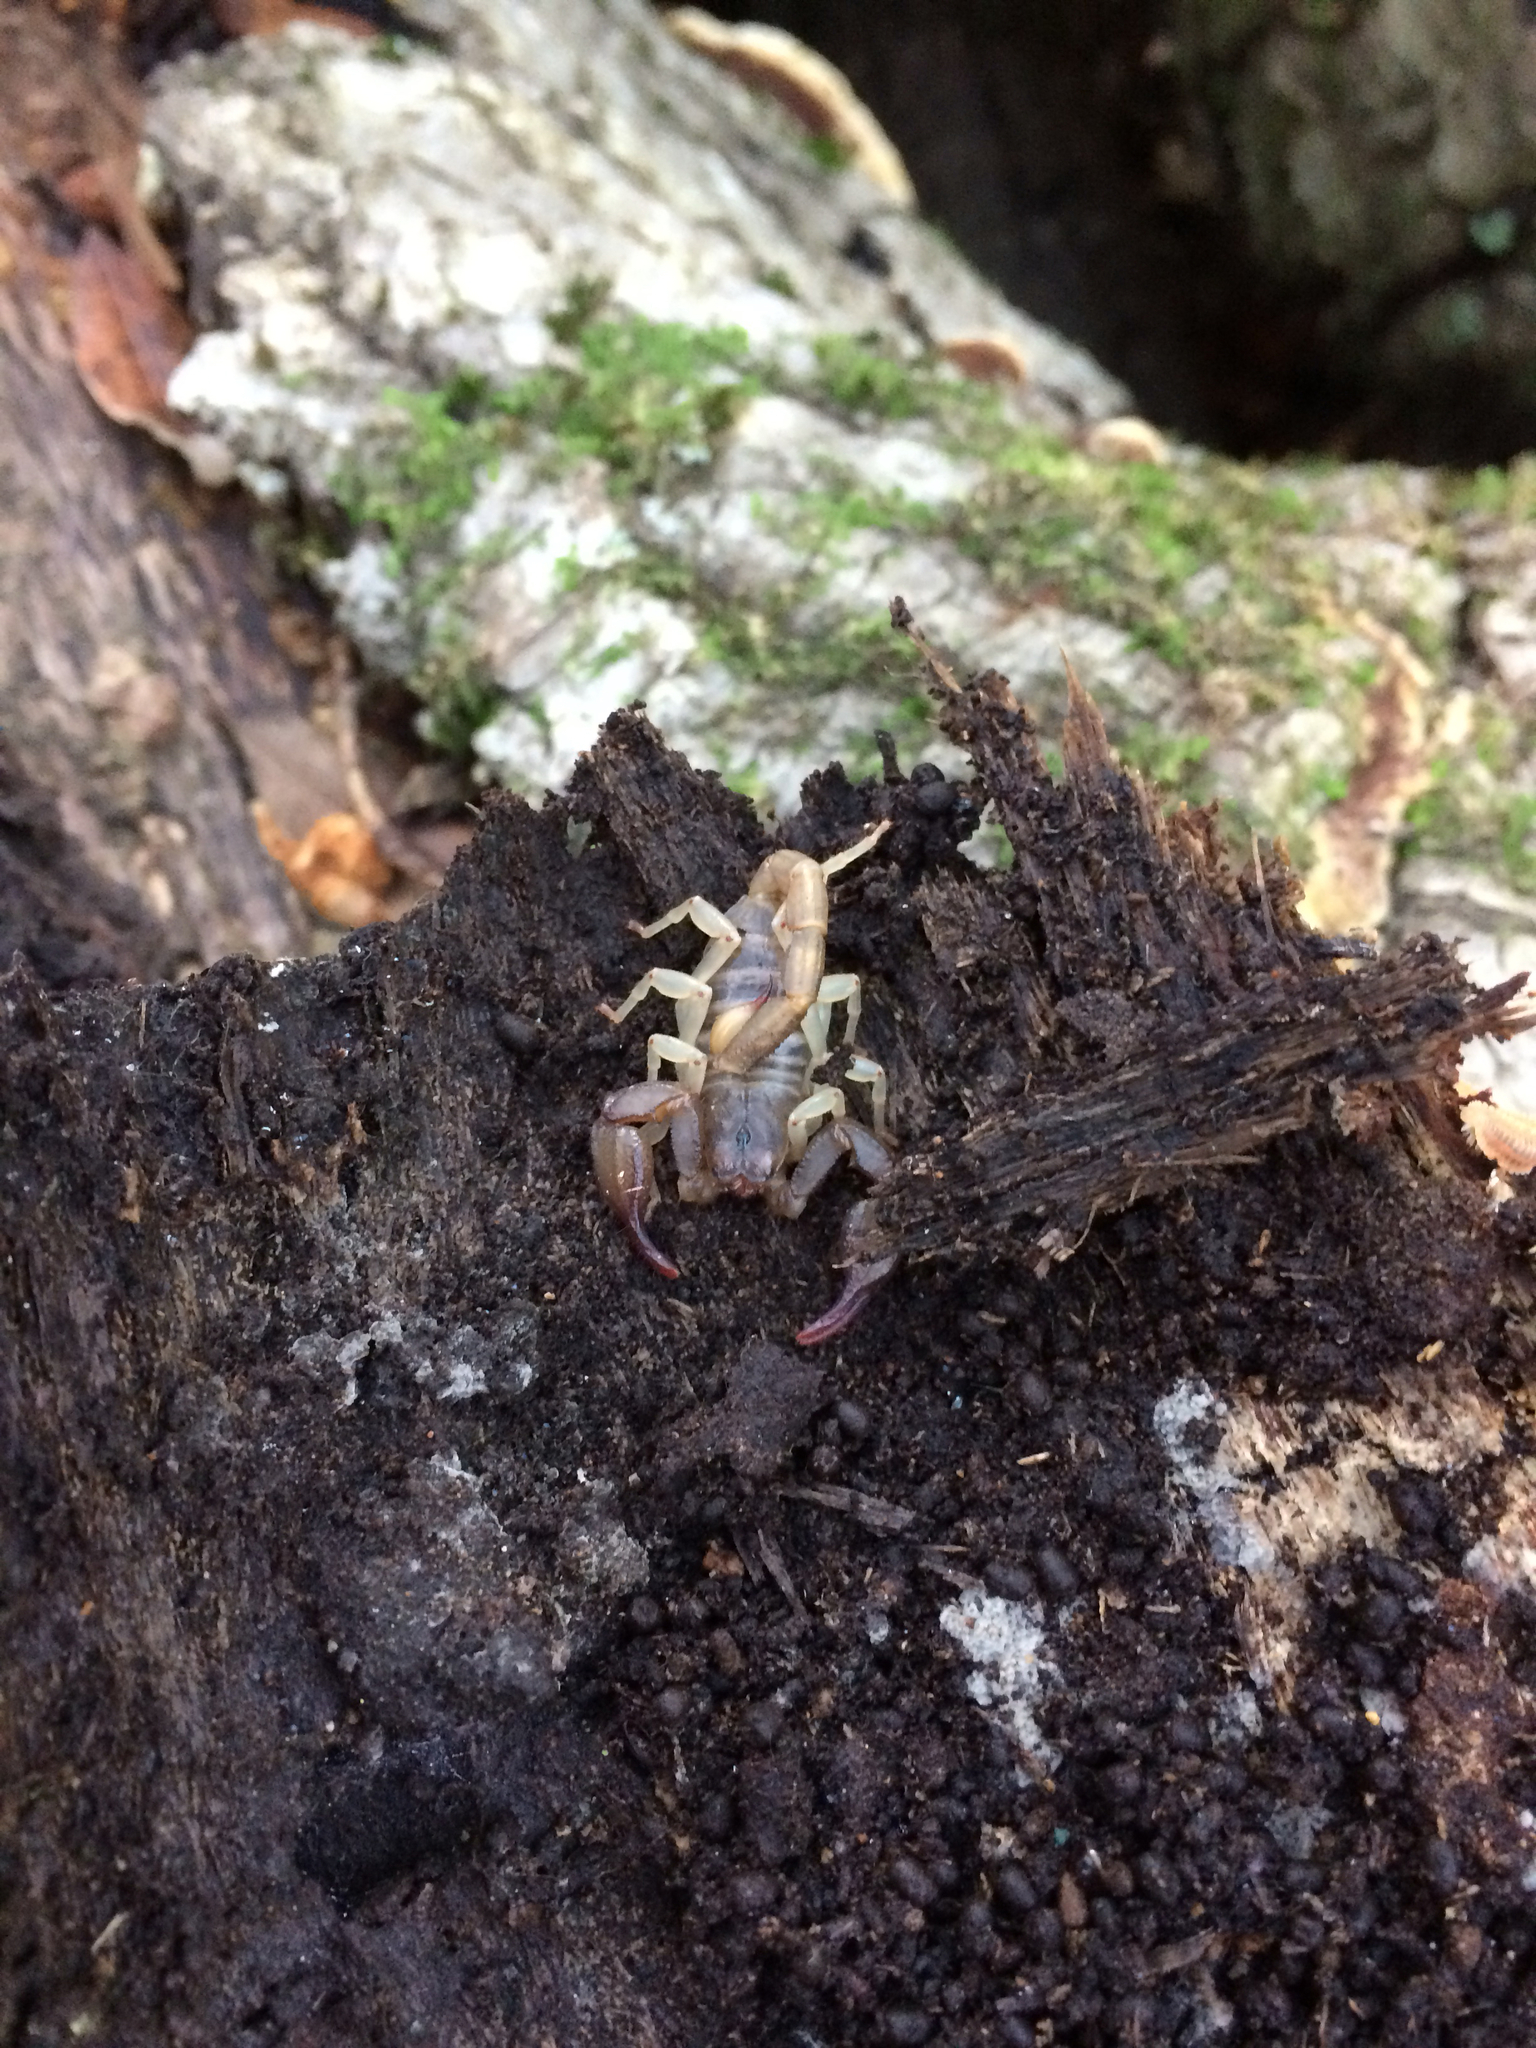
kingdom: Animalia
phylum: Arthropoda
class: Arachnida
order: Scorpiones
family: Chactidae
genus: Uroctonus
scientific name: Uroctonus mordax
